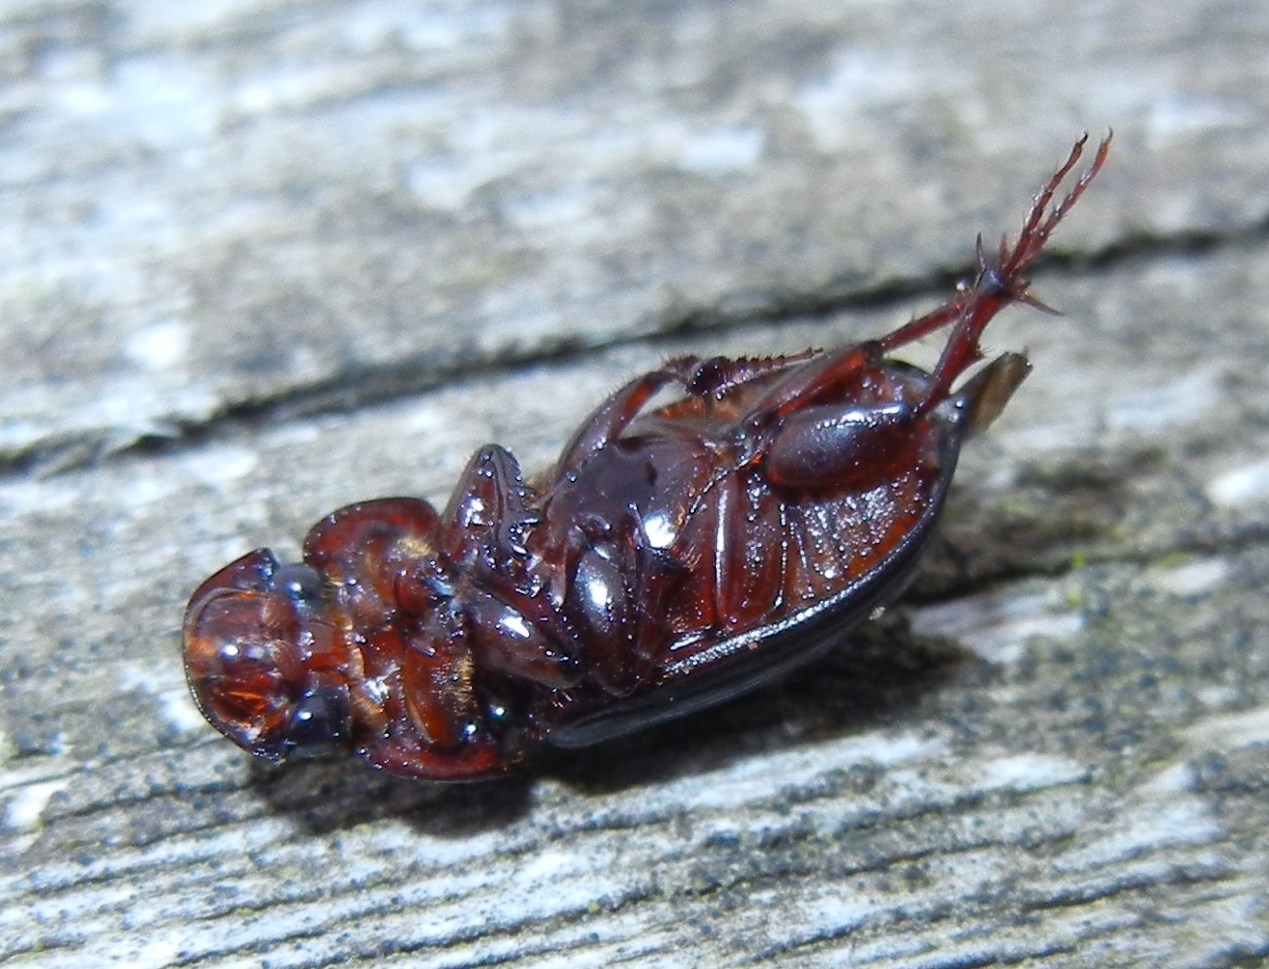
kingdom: Animalia
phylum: Arthropoda
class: Insecta
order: Coleoptera
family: Scarabaeidae
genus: Acrossus
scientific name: Acrossus rufipes
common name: Night-flying dung beetle
